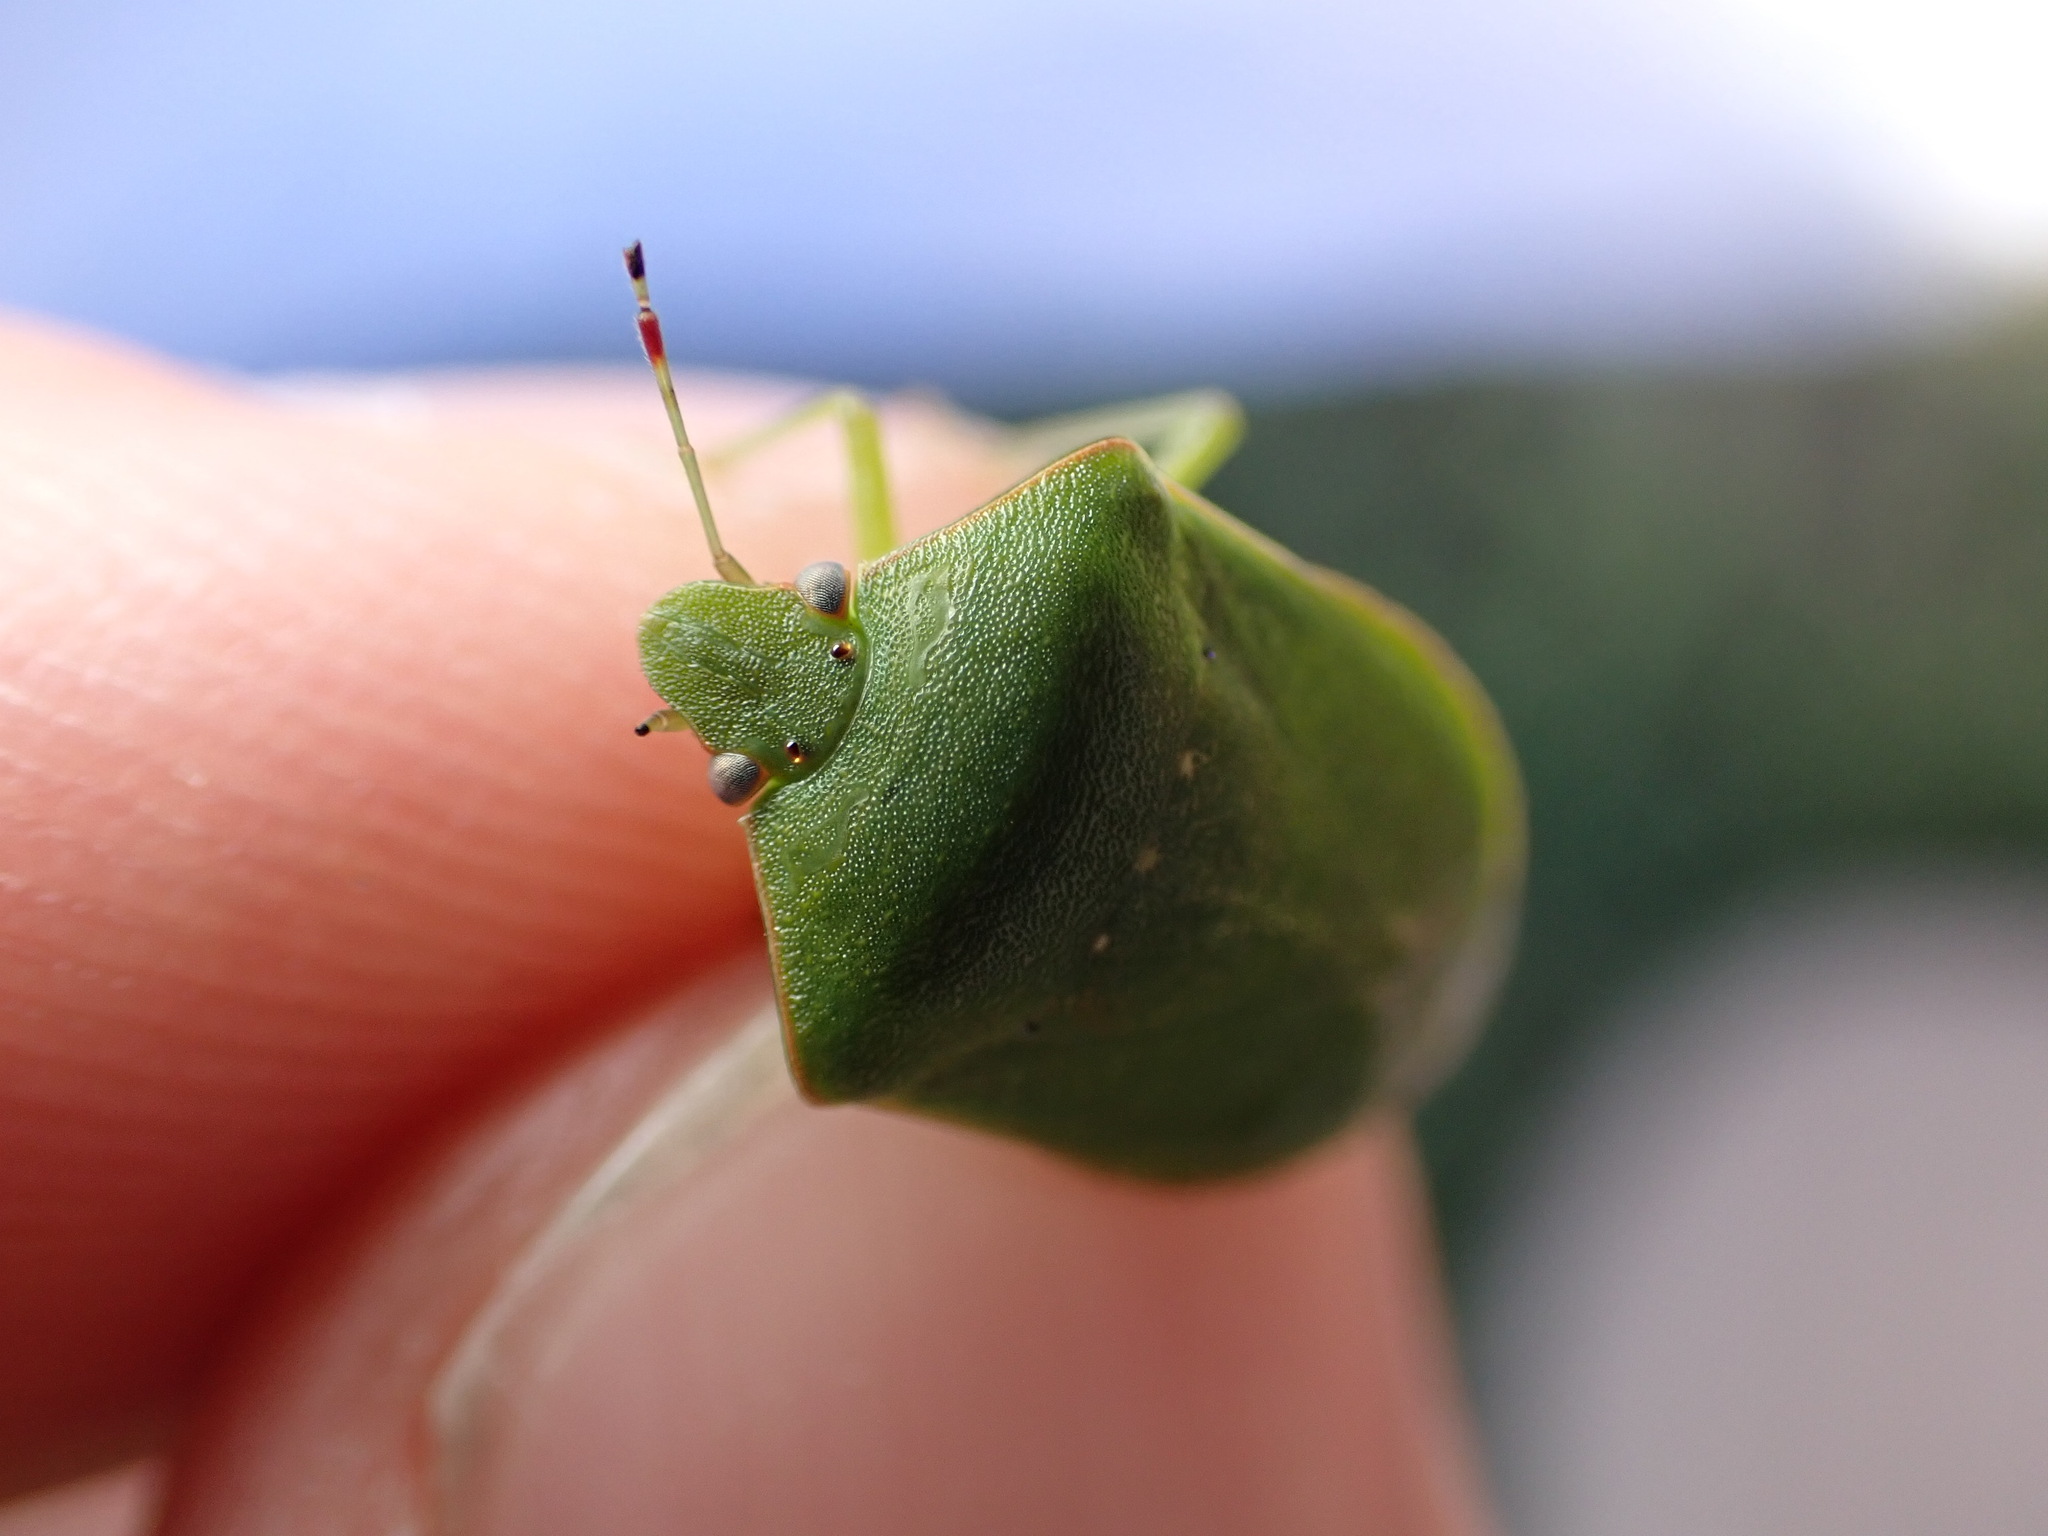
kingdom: Animalia
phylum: Arthropoda
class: Insecta
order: Hemiptera
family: Pentatomidae
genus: Nezara
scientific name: Nezara viridula
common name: Southern green stink bug
